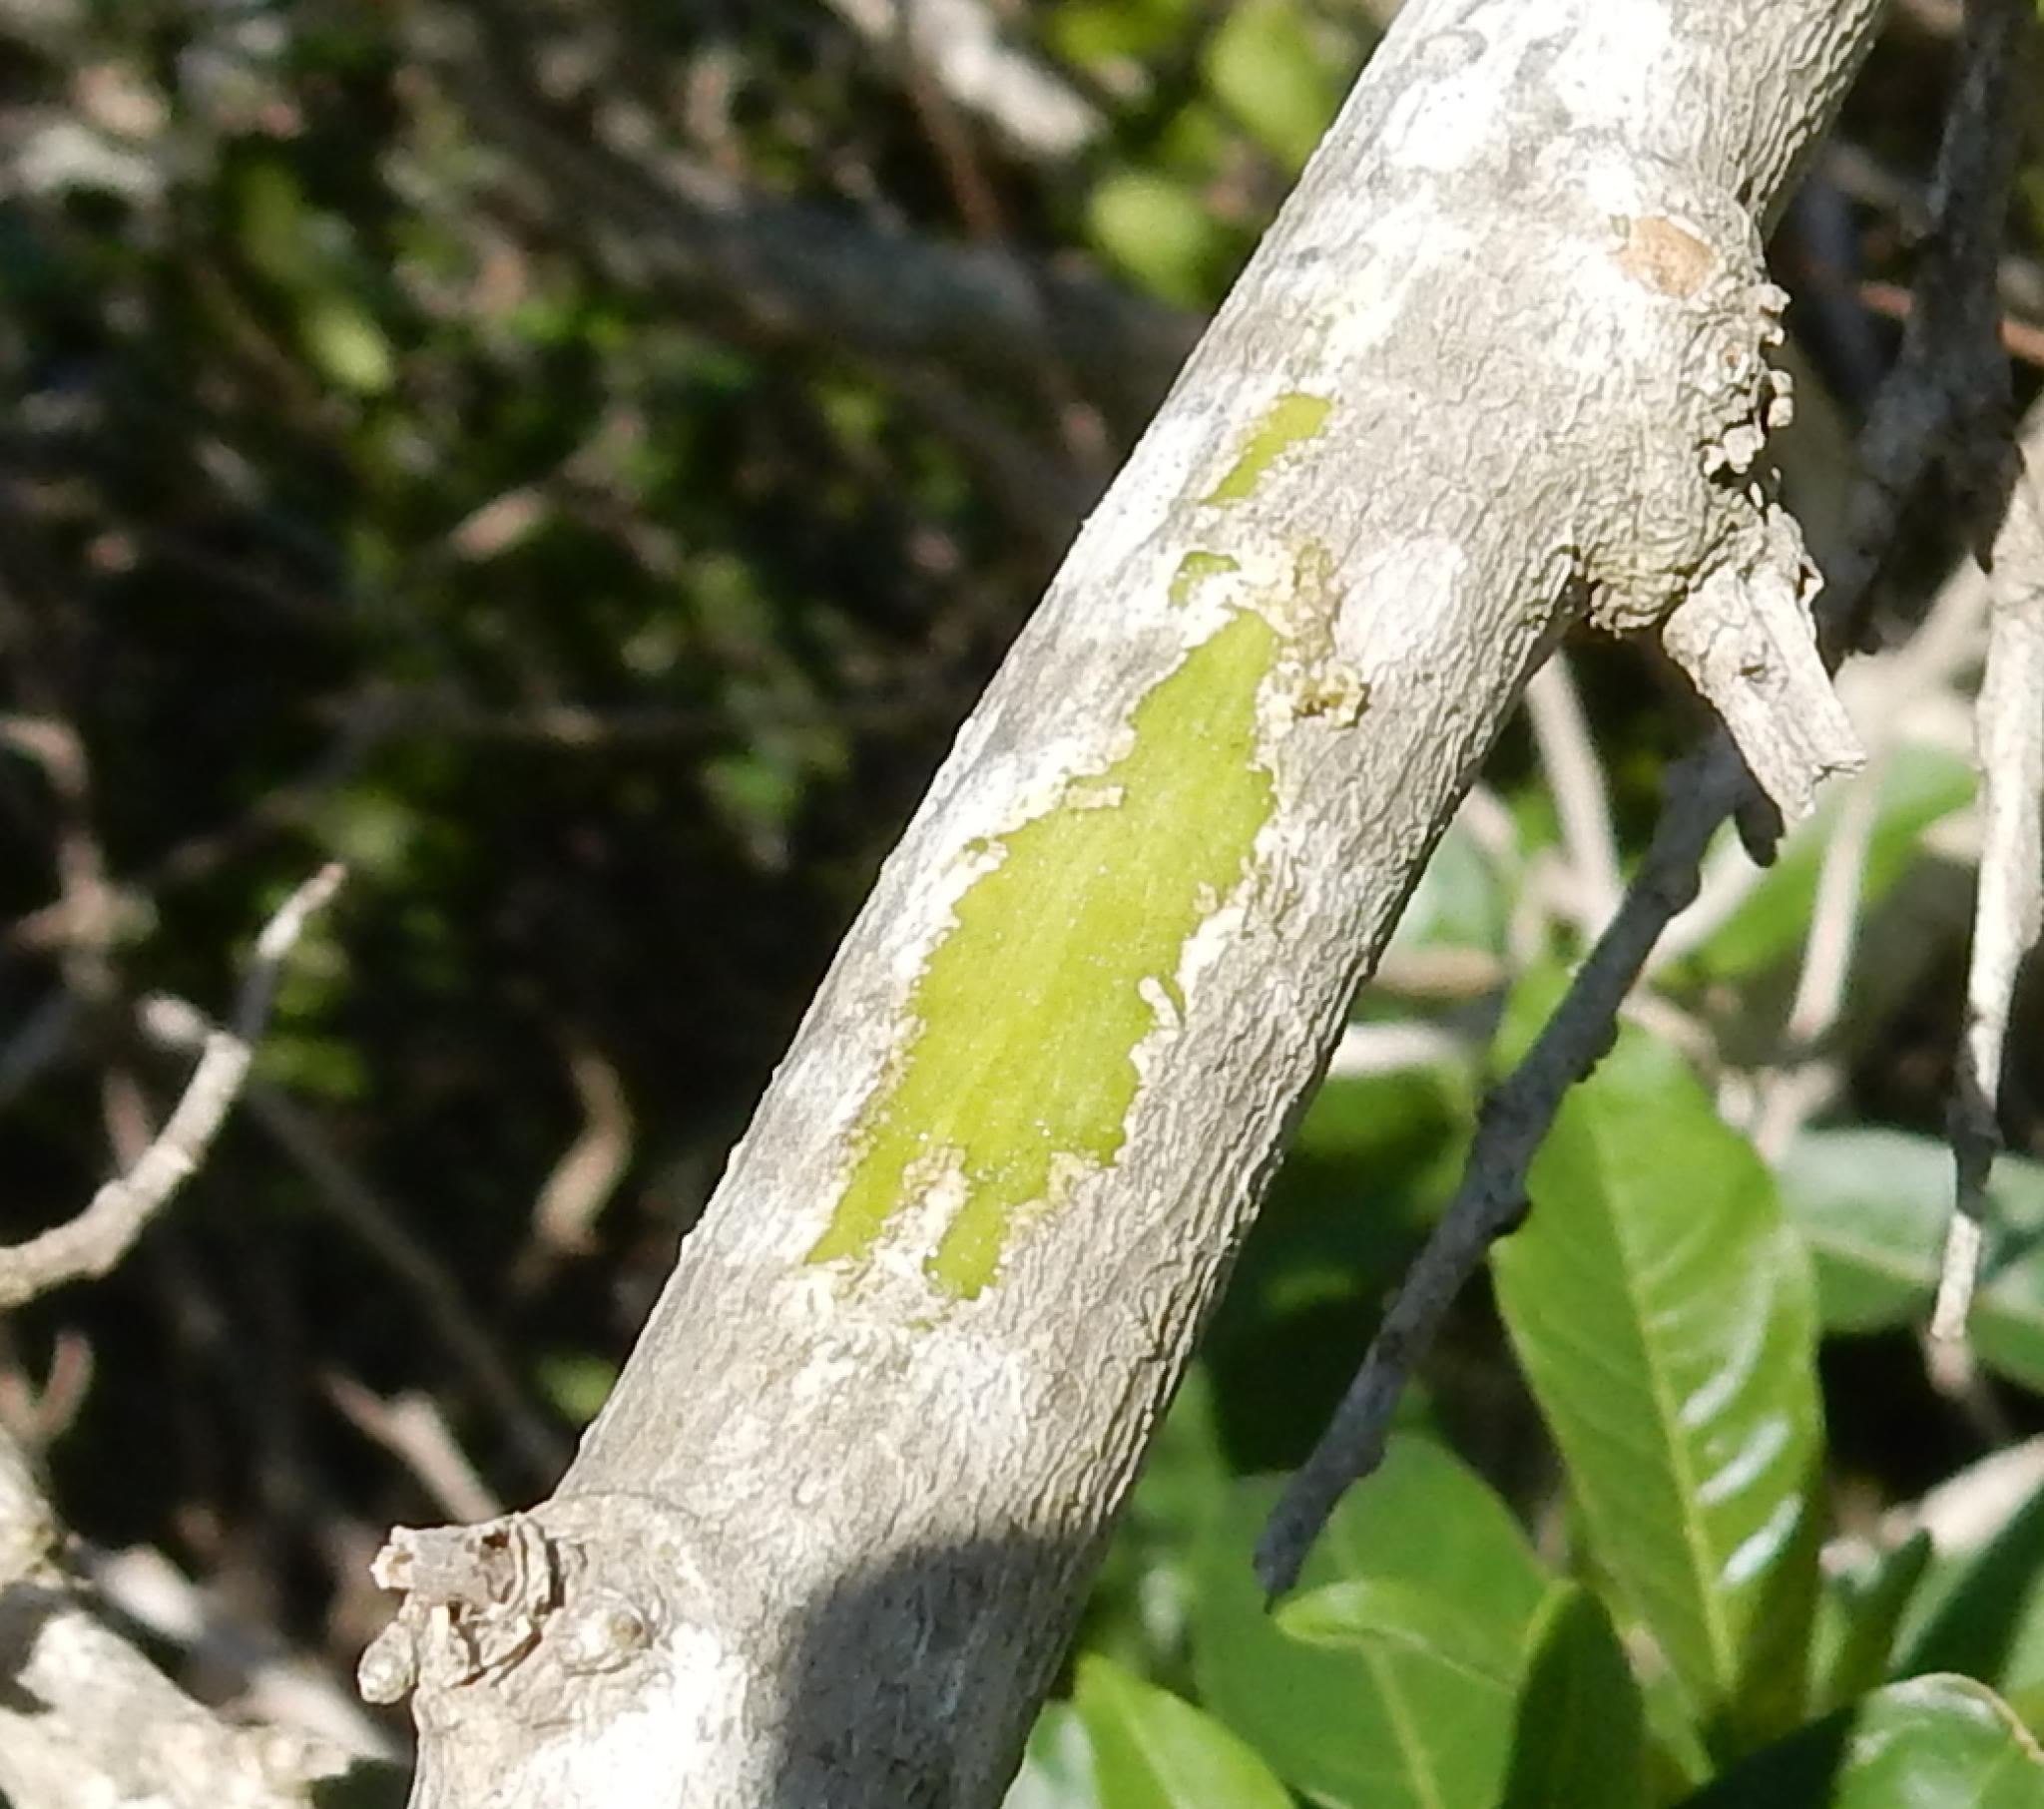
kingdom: Plantae
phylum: Tracheophyta
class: Magnoliopsida
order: Solanales
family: Solanaceae
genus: Cestrum
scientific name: Cestrum laevigatum
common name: Inkberry
